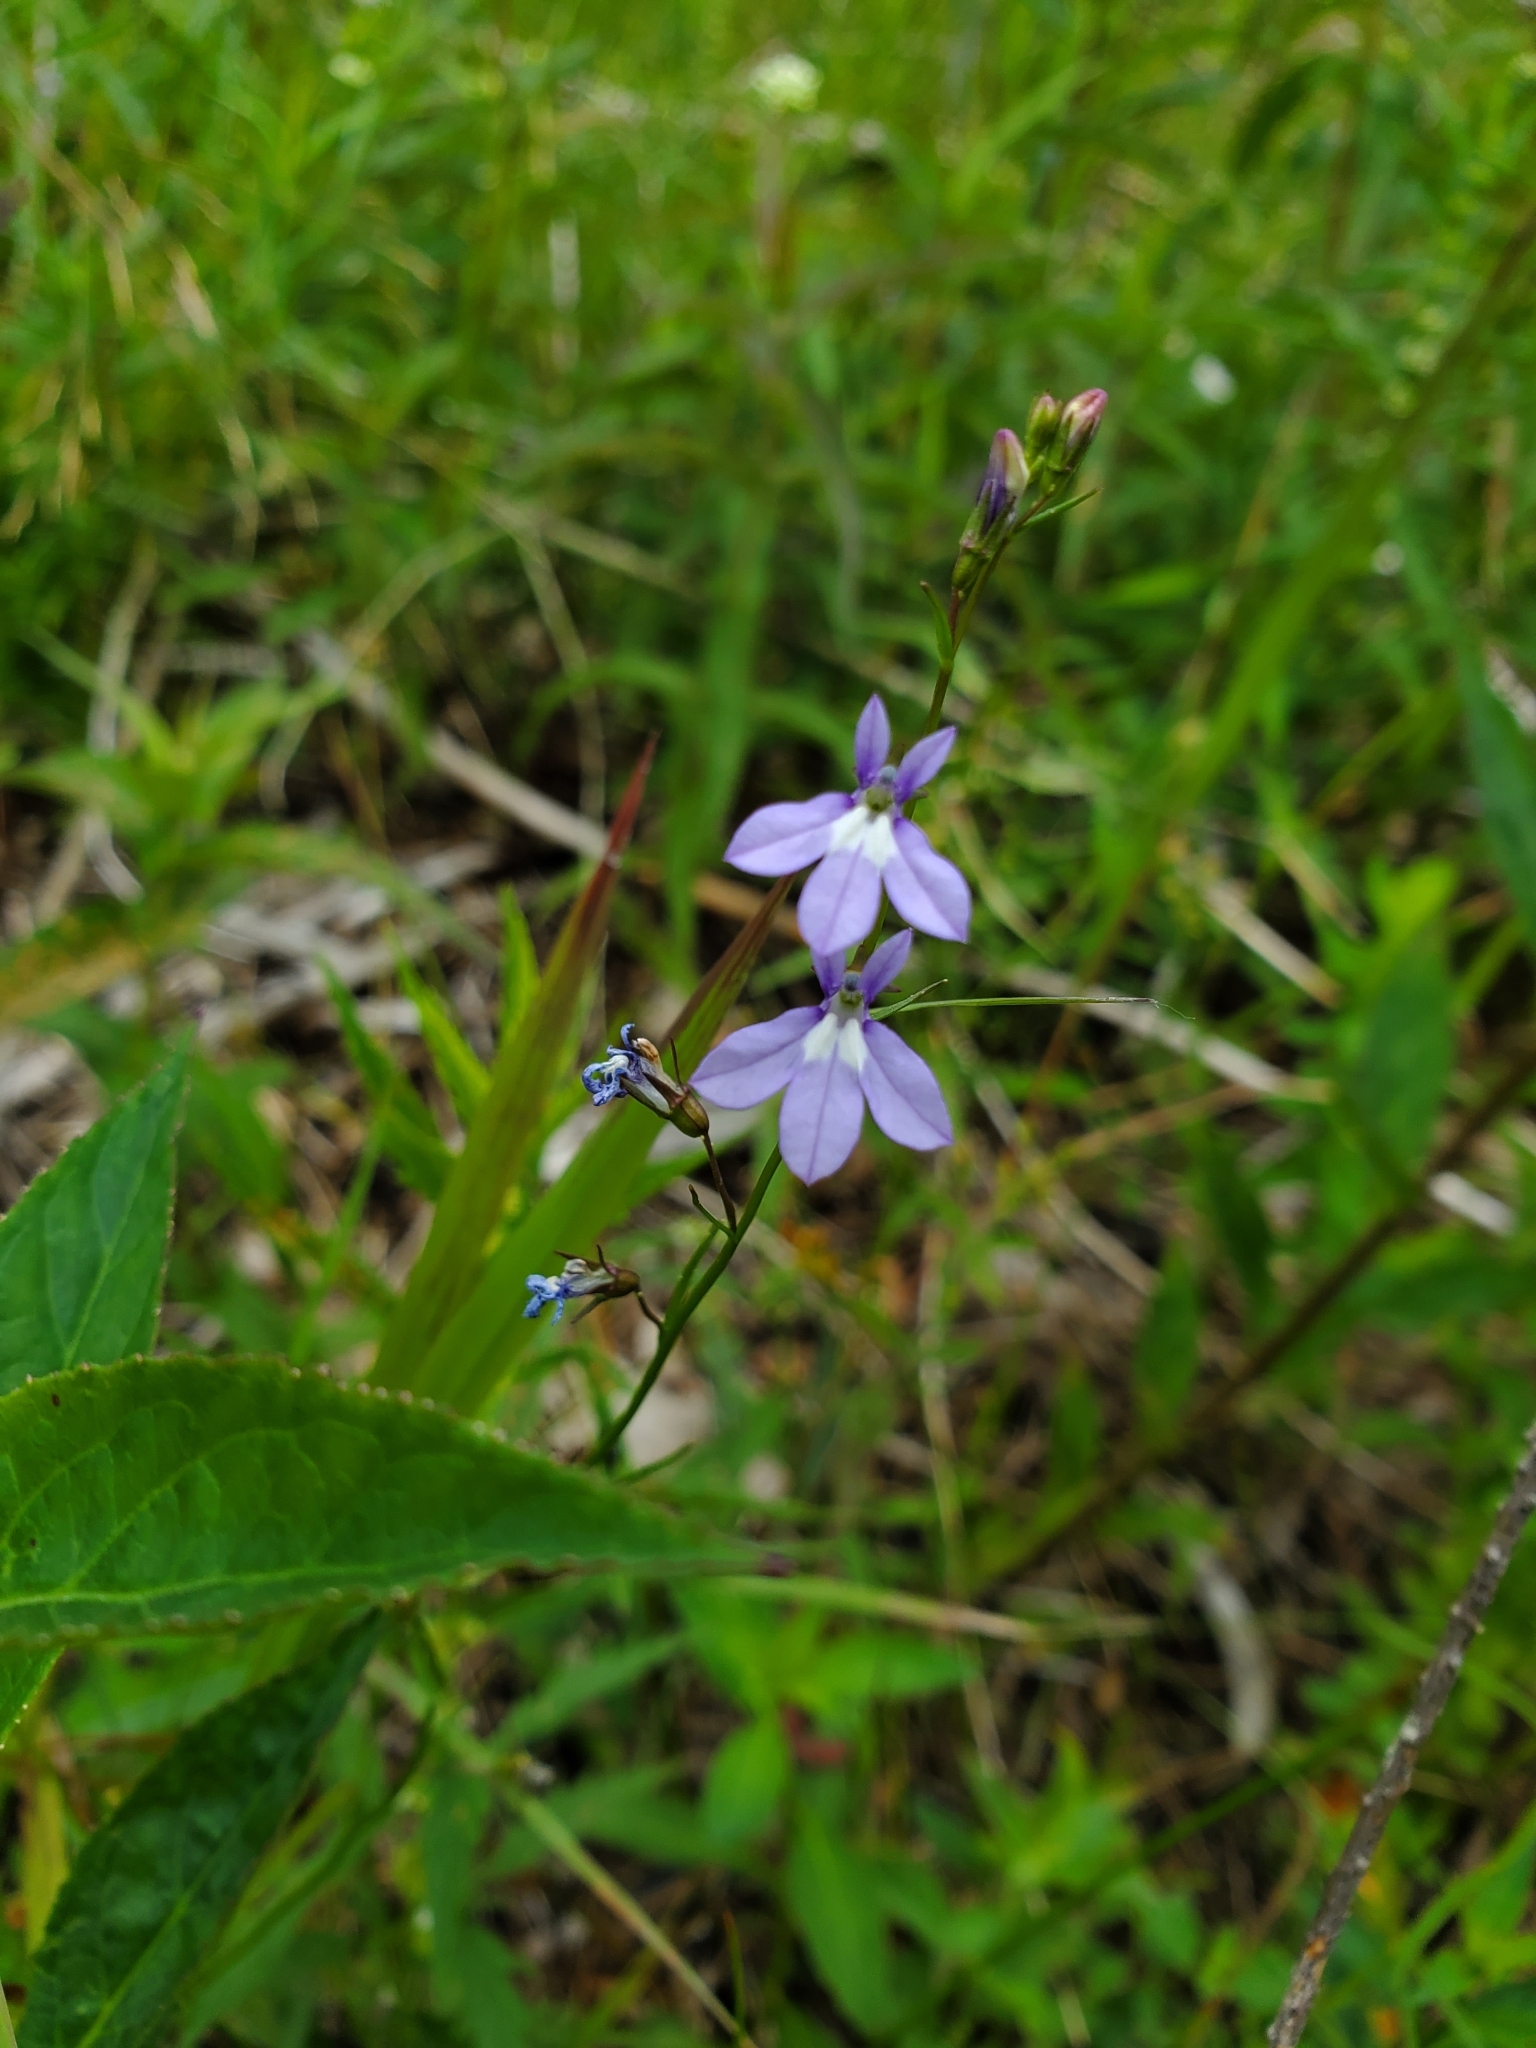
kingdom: Plantae
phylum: Tracheophyta
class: Magnoliopsida
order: Asterales
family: Campanulaceae
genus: Lobelia
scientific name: Lobelia kalmii
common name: Kalm's lobelia
